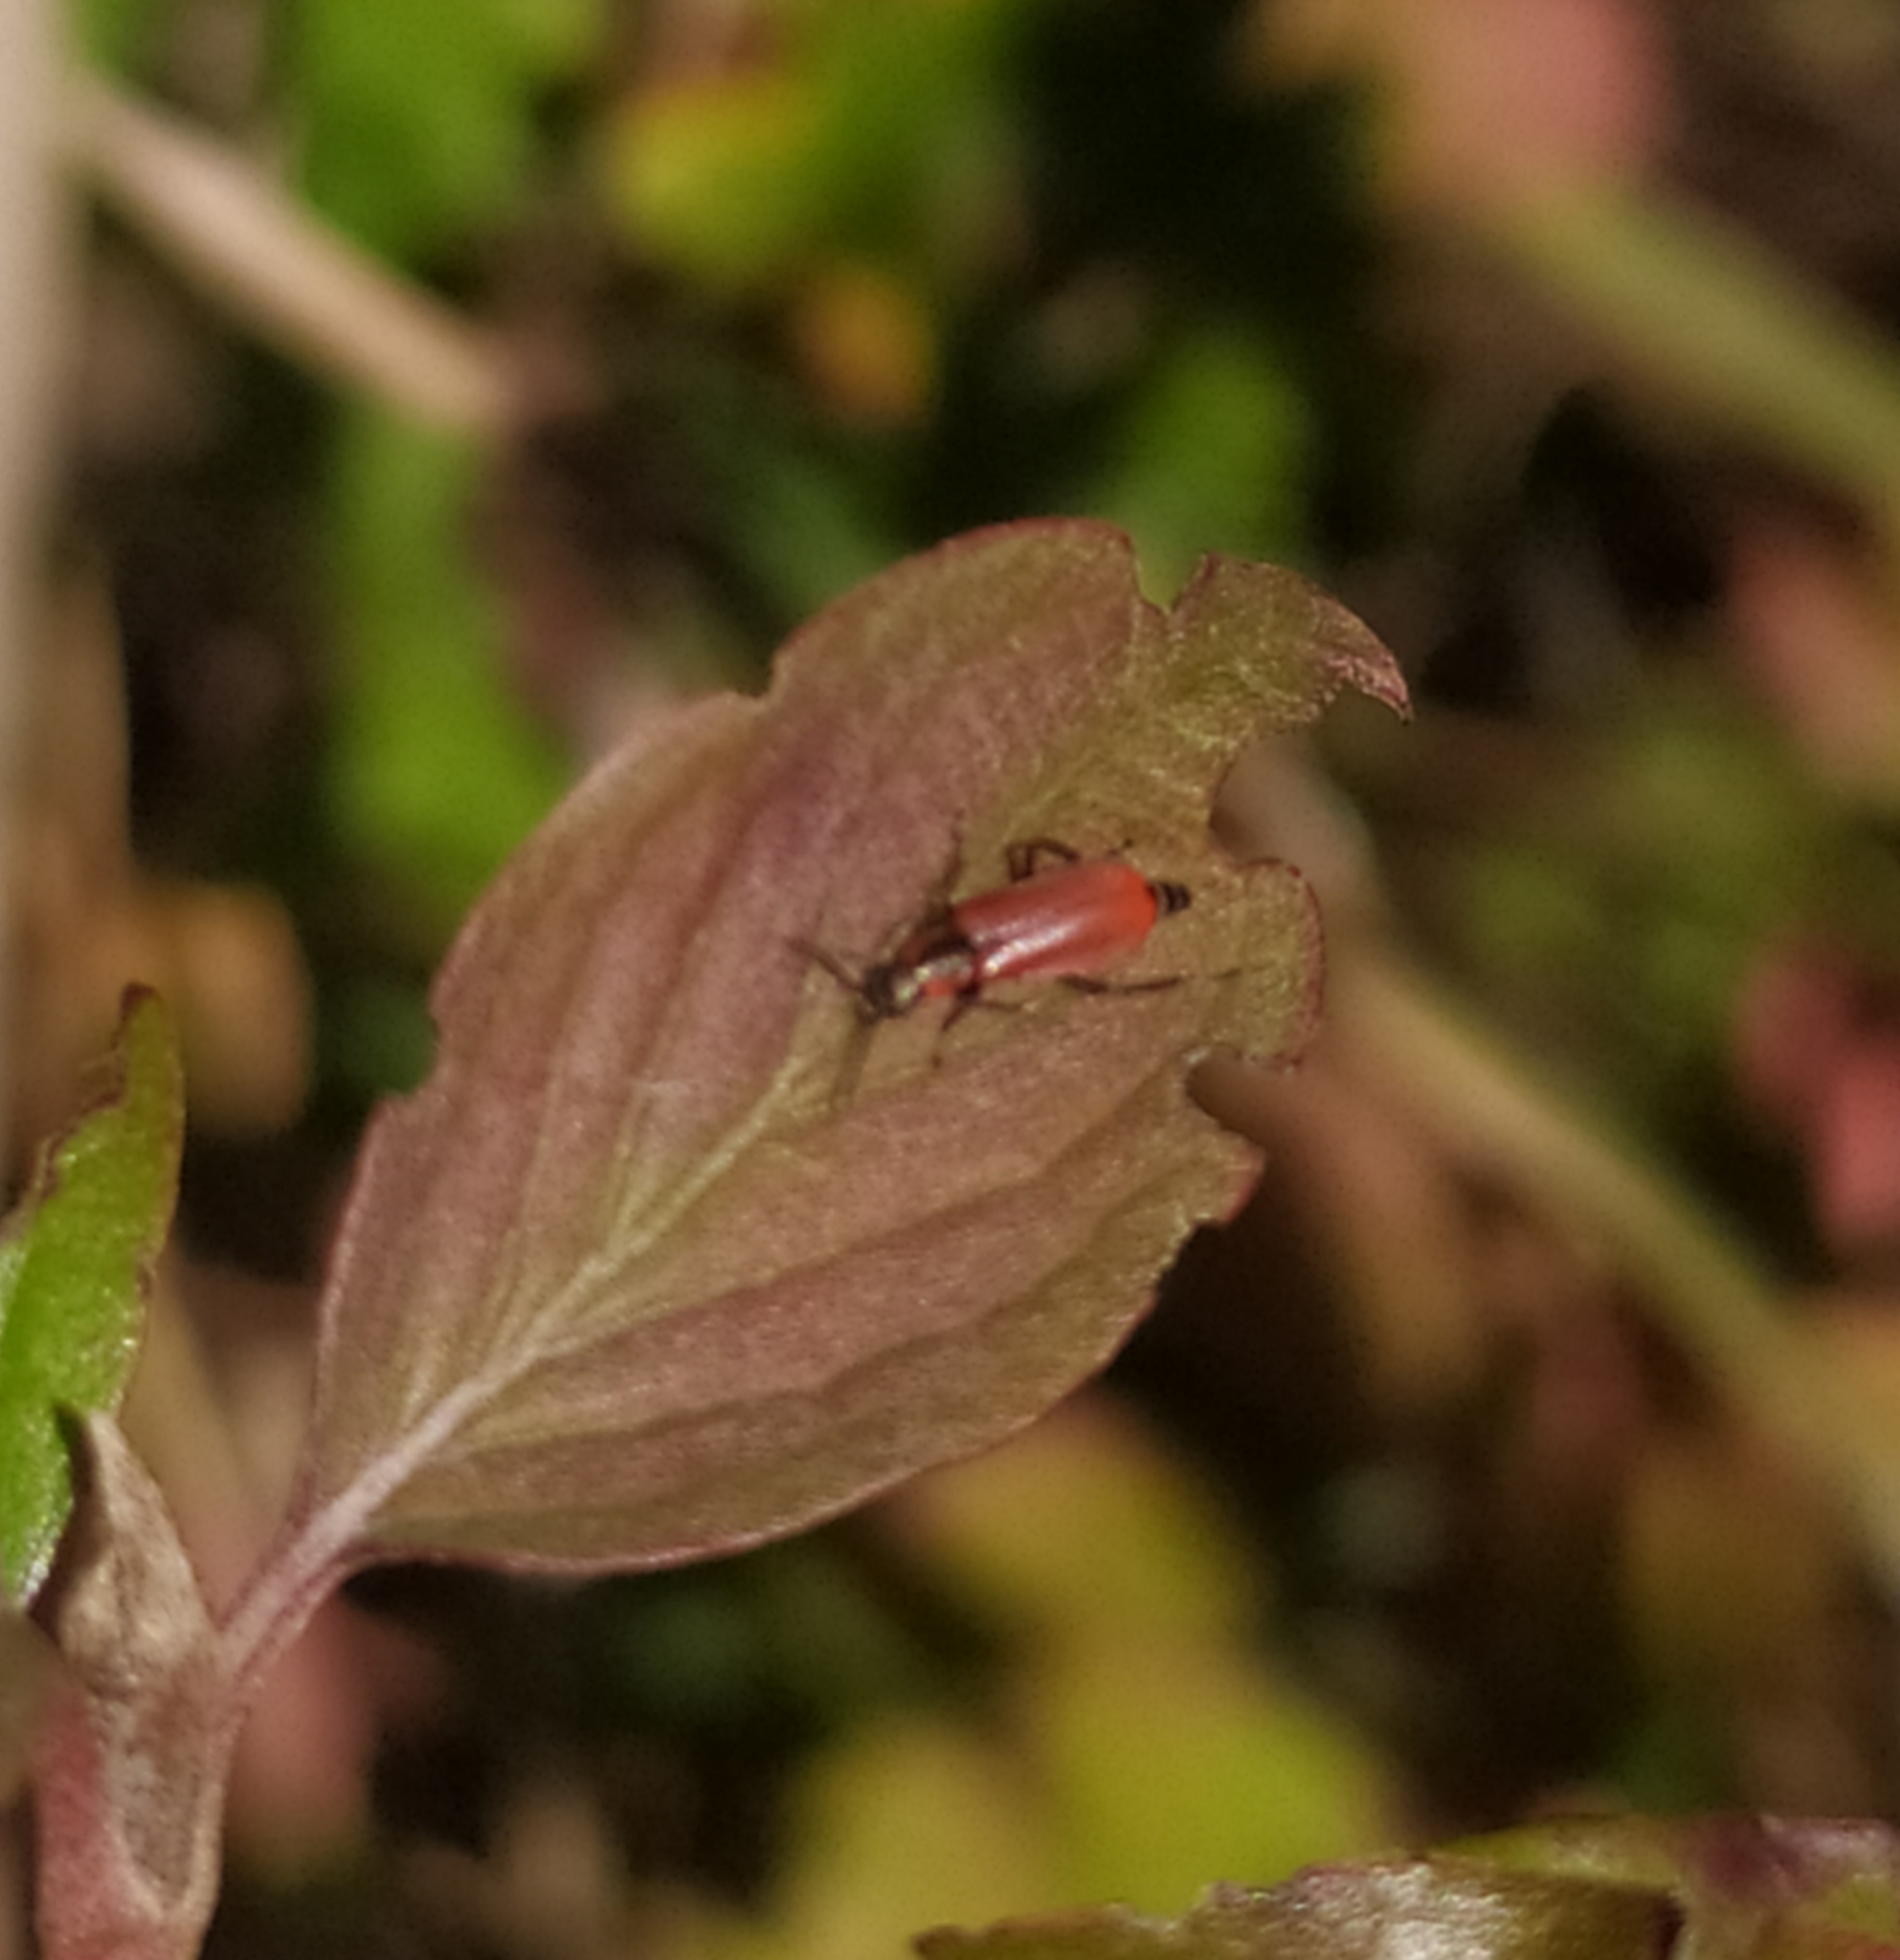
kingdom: Animalia
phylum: Arthropoda
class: Insecta
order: Coleoptera
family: Melyridae
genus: Anthocomus
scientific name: Anthocomus rufus
